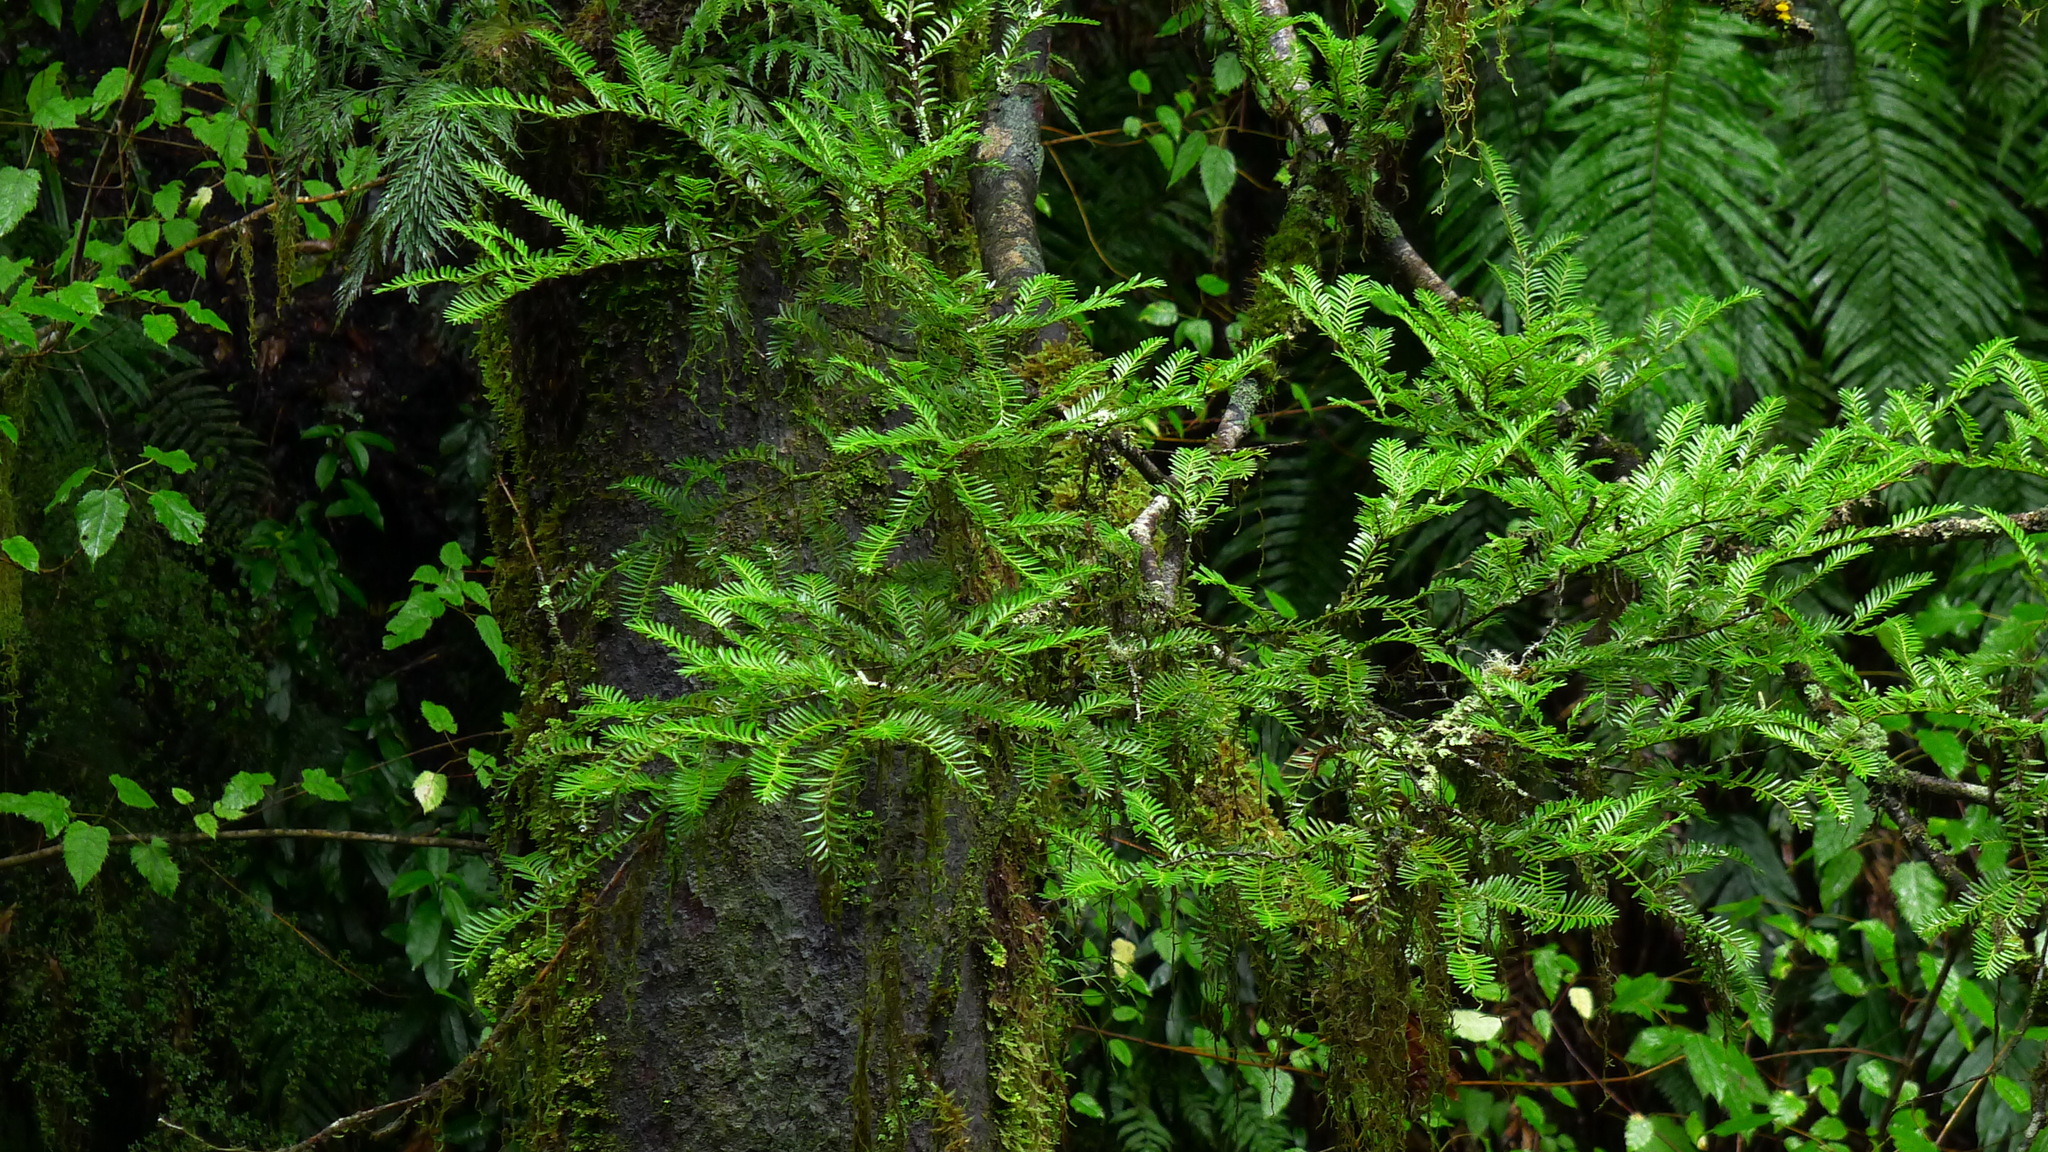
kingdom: Plantae
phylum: Tracheophyta
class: Pinopsida
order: Pinales
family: Podocarpaceae
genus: Prumnopitys
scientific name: Prumnopitys ferruginea
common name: Brown pine
